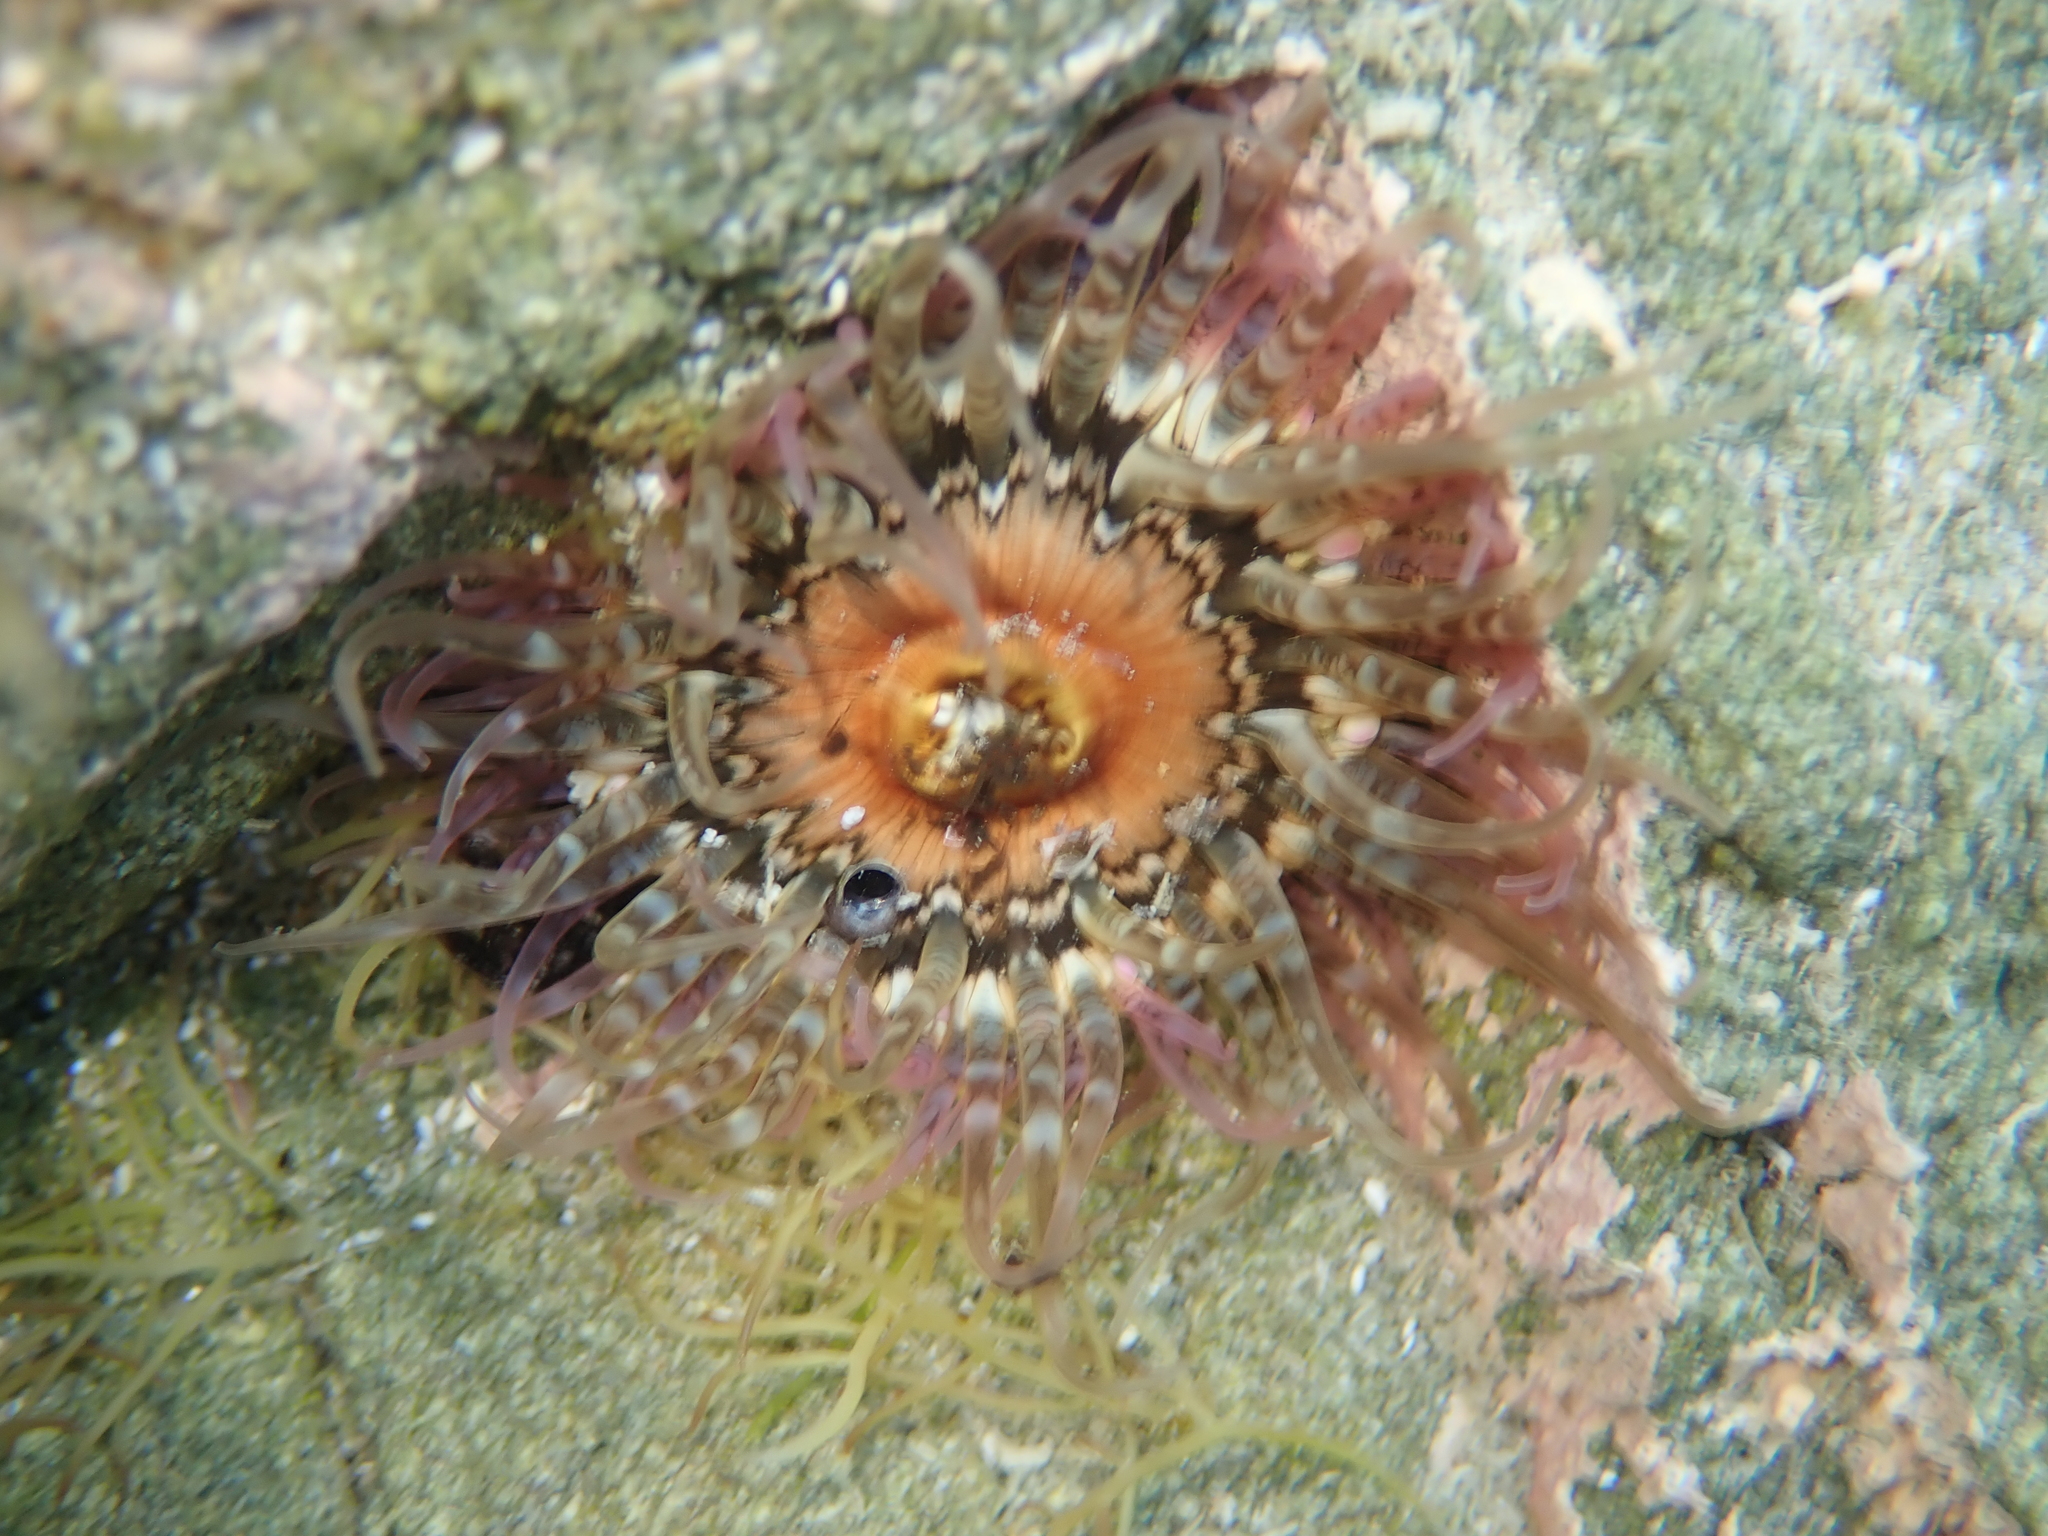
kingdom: Animalia
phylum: Cnidaria
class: Anthozoa
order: Actiniaria
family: Actiniidae
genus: Oulactis
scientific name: Oulactis muscosa
